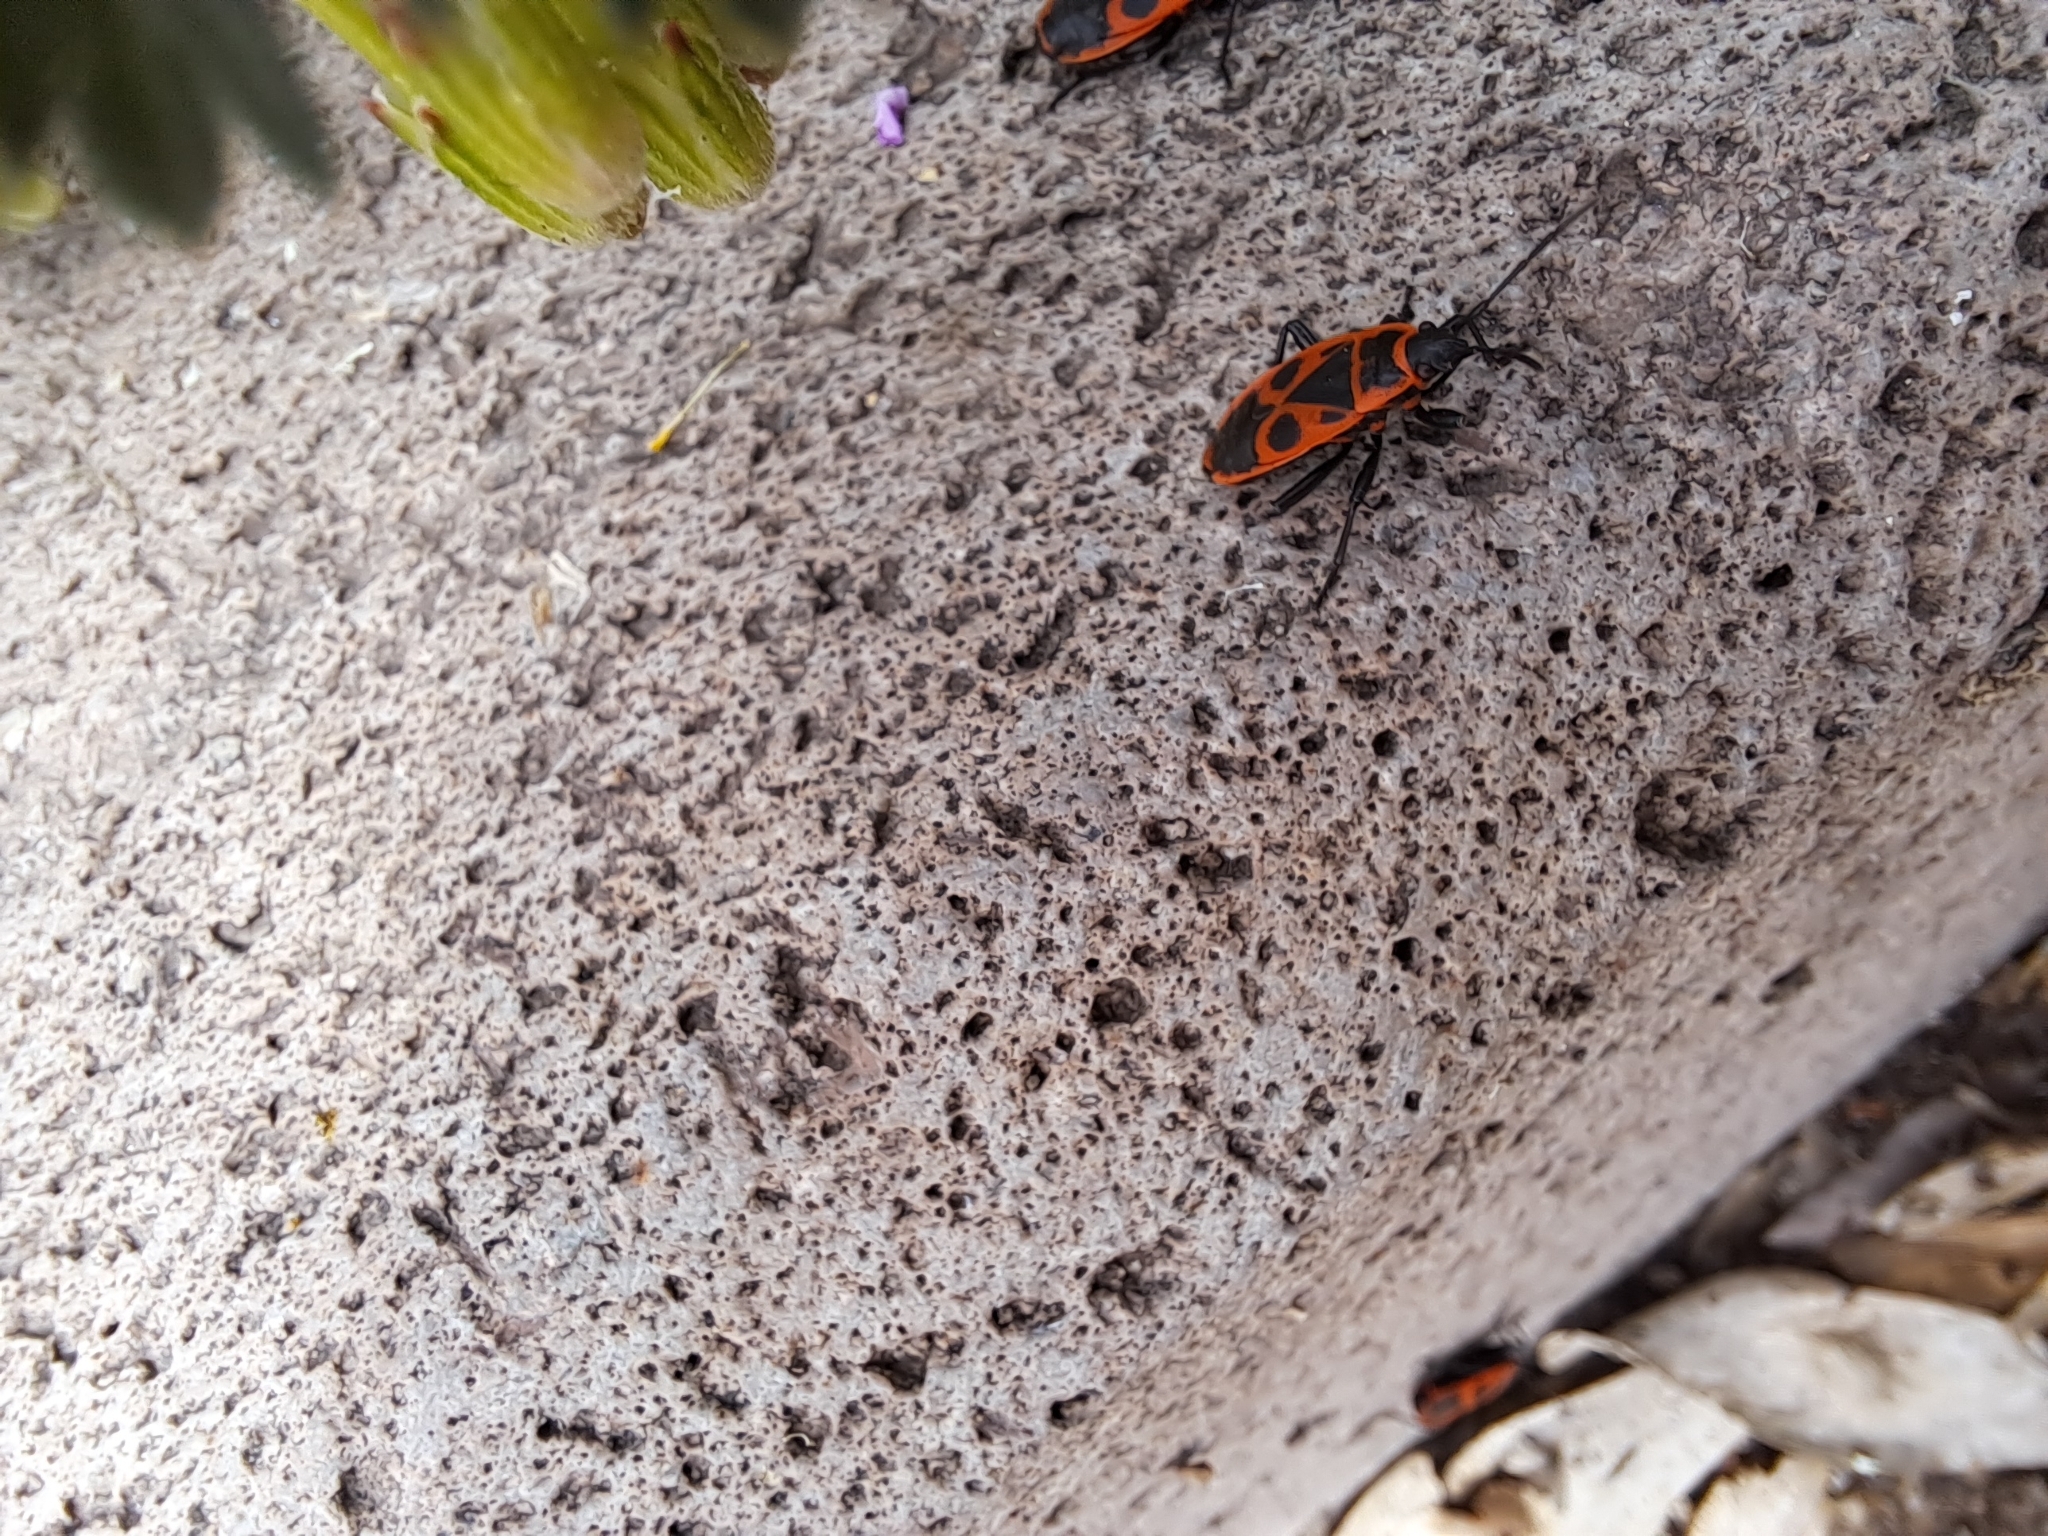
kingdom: Animalia
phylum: Arthropoda
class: Insecta
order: Hemiptera
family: Pyrrhocoridae
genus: Pyrrhocoris
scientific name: Pyrrhocoris apterus
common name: Firebug
